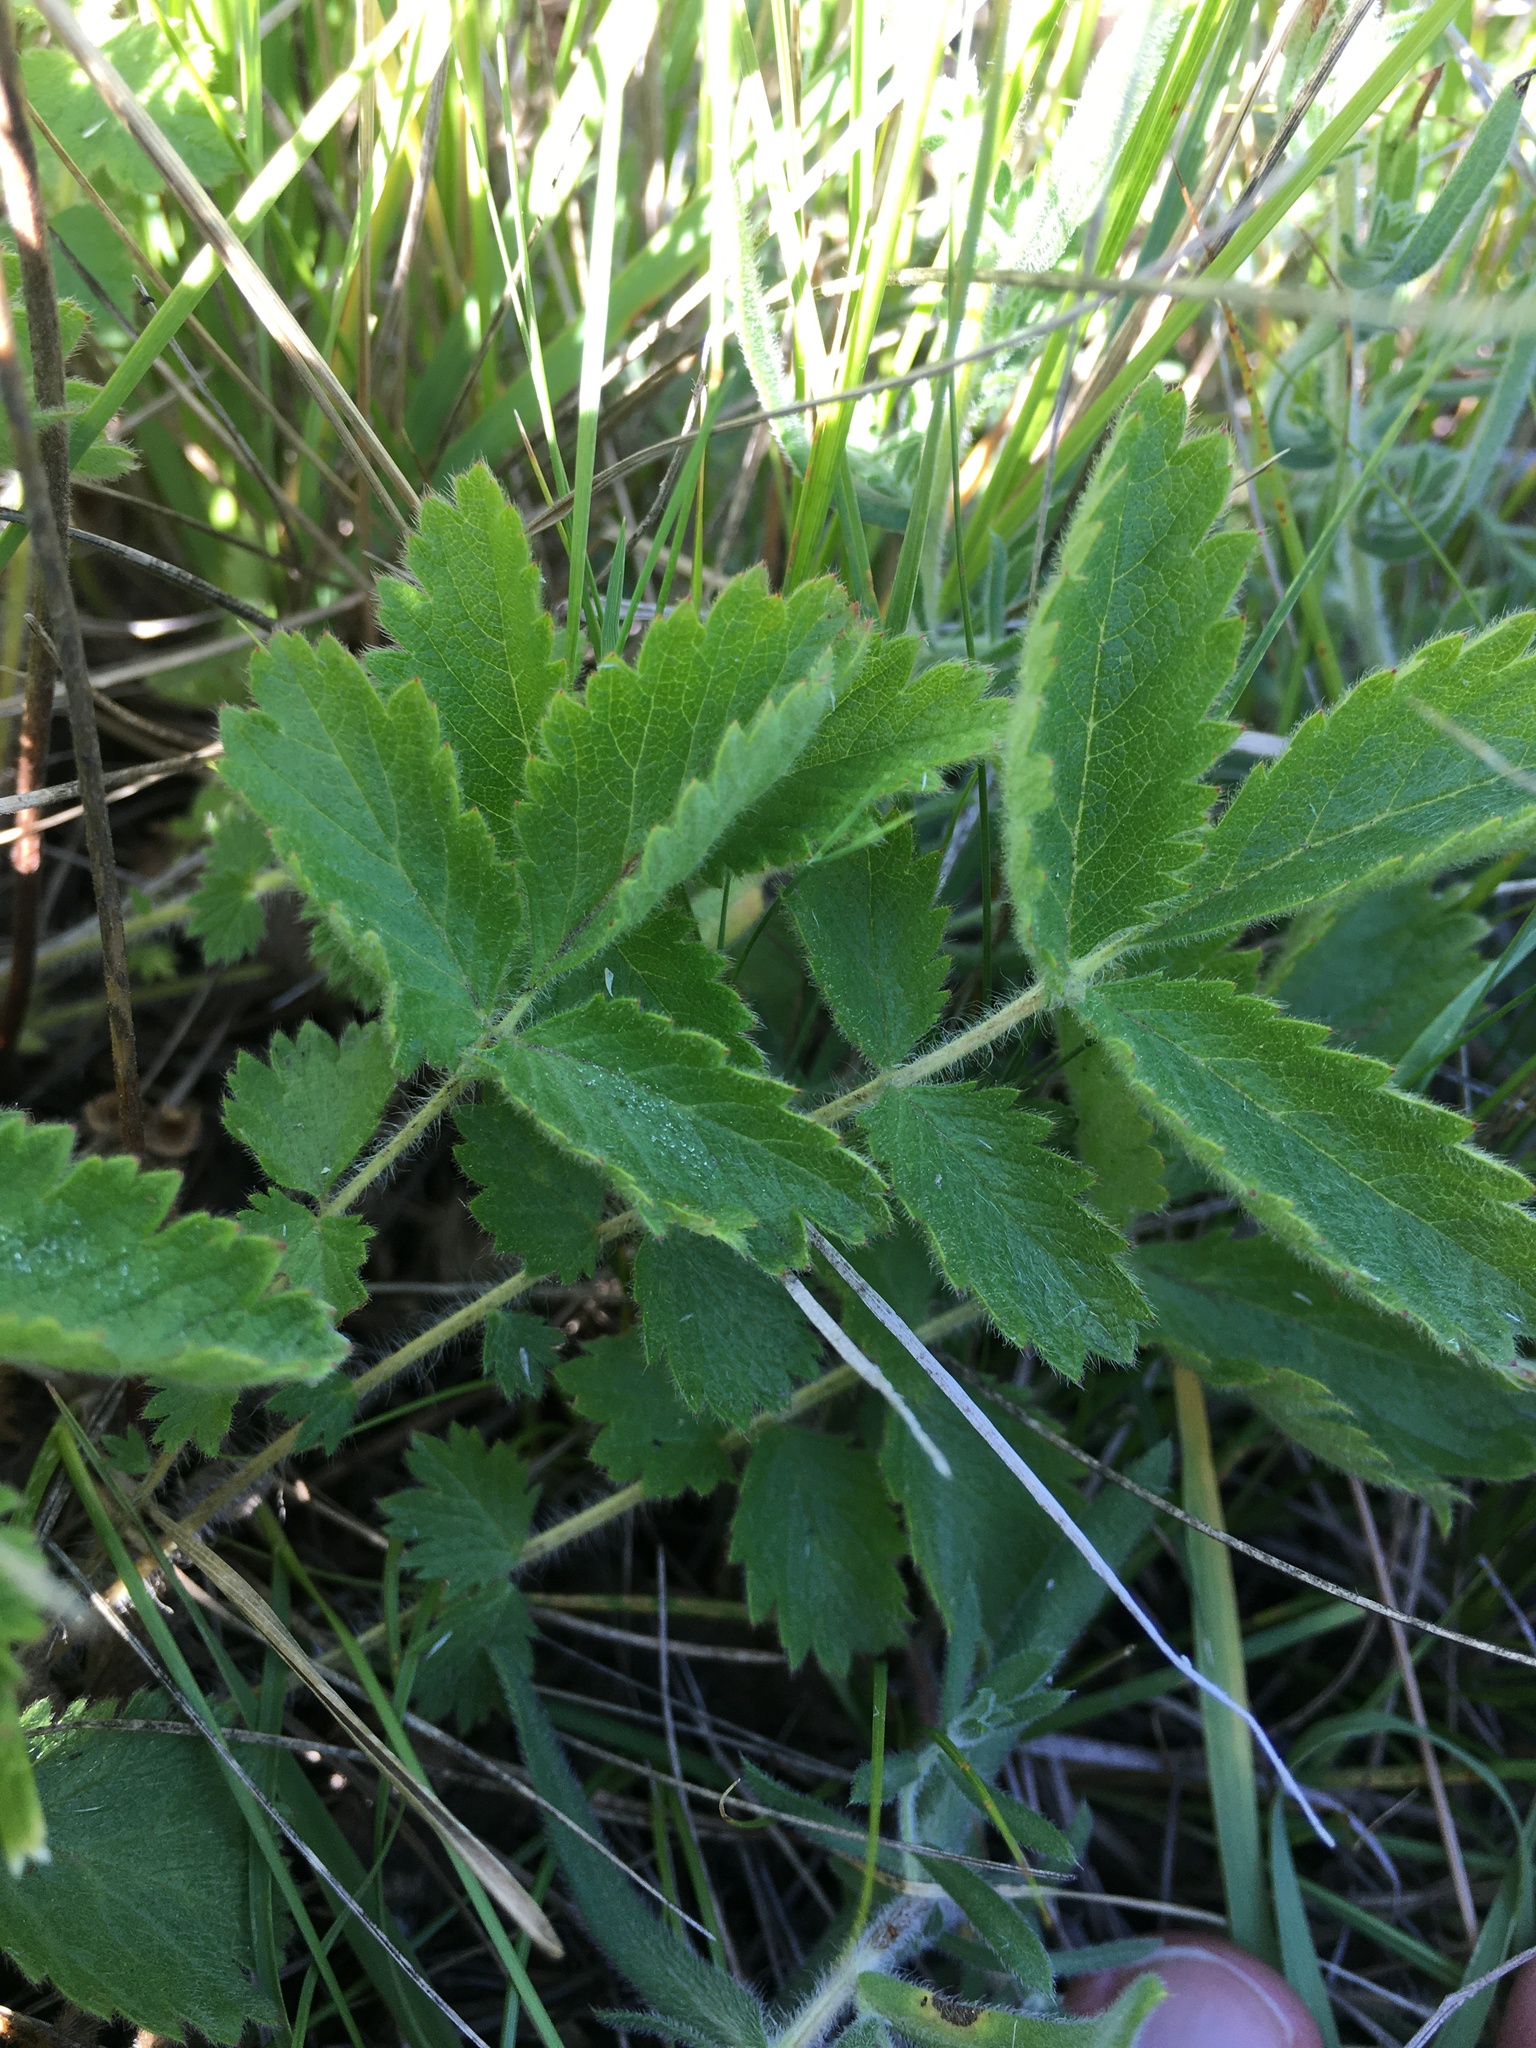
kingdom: Plantae
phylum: Tracheophyta
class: Magnoliopsida
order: Rosales
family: Rosaceae
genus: Drymocallis
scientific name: Drymocallis arguta
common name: Tall cinquefoil
